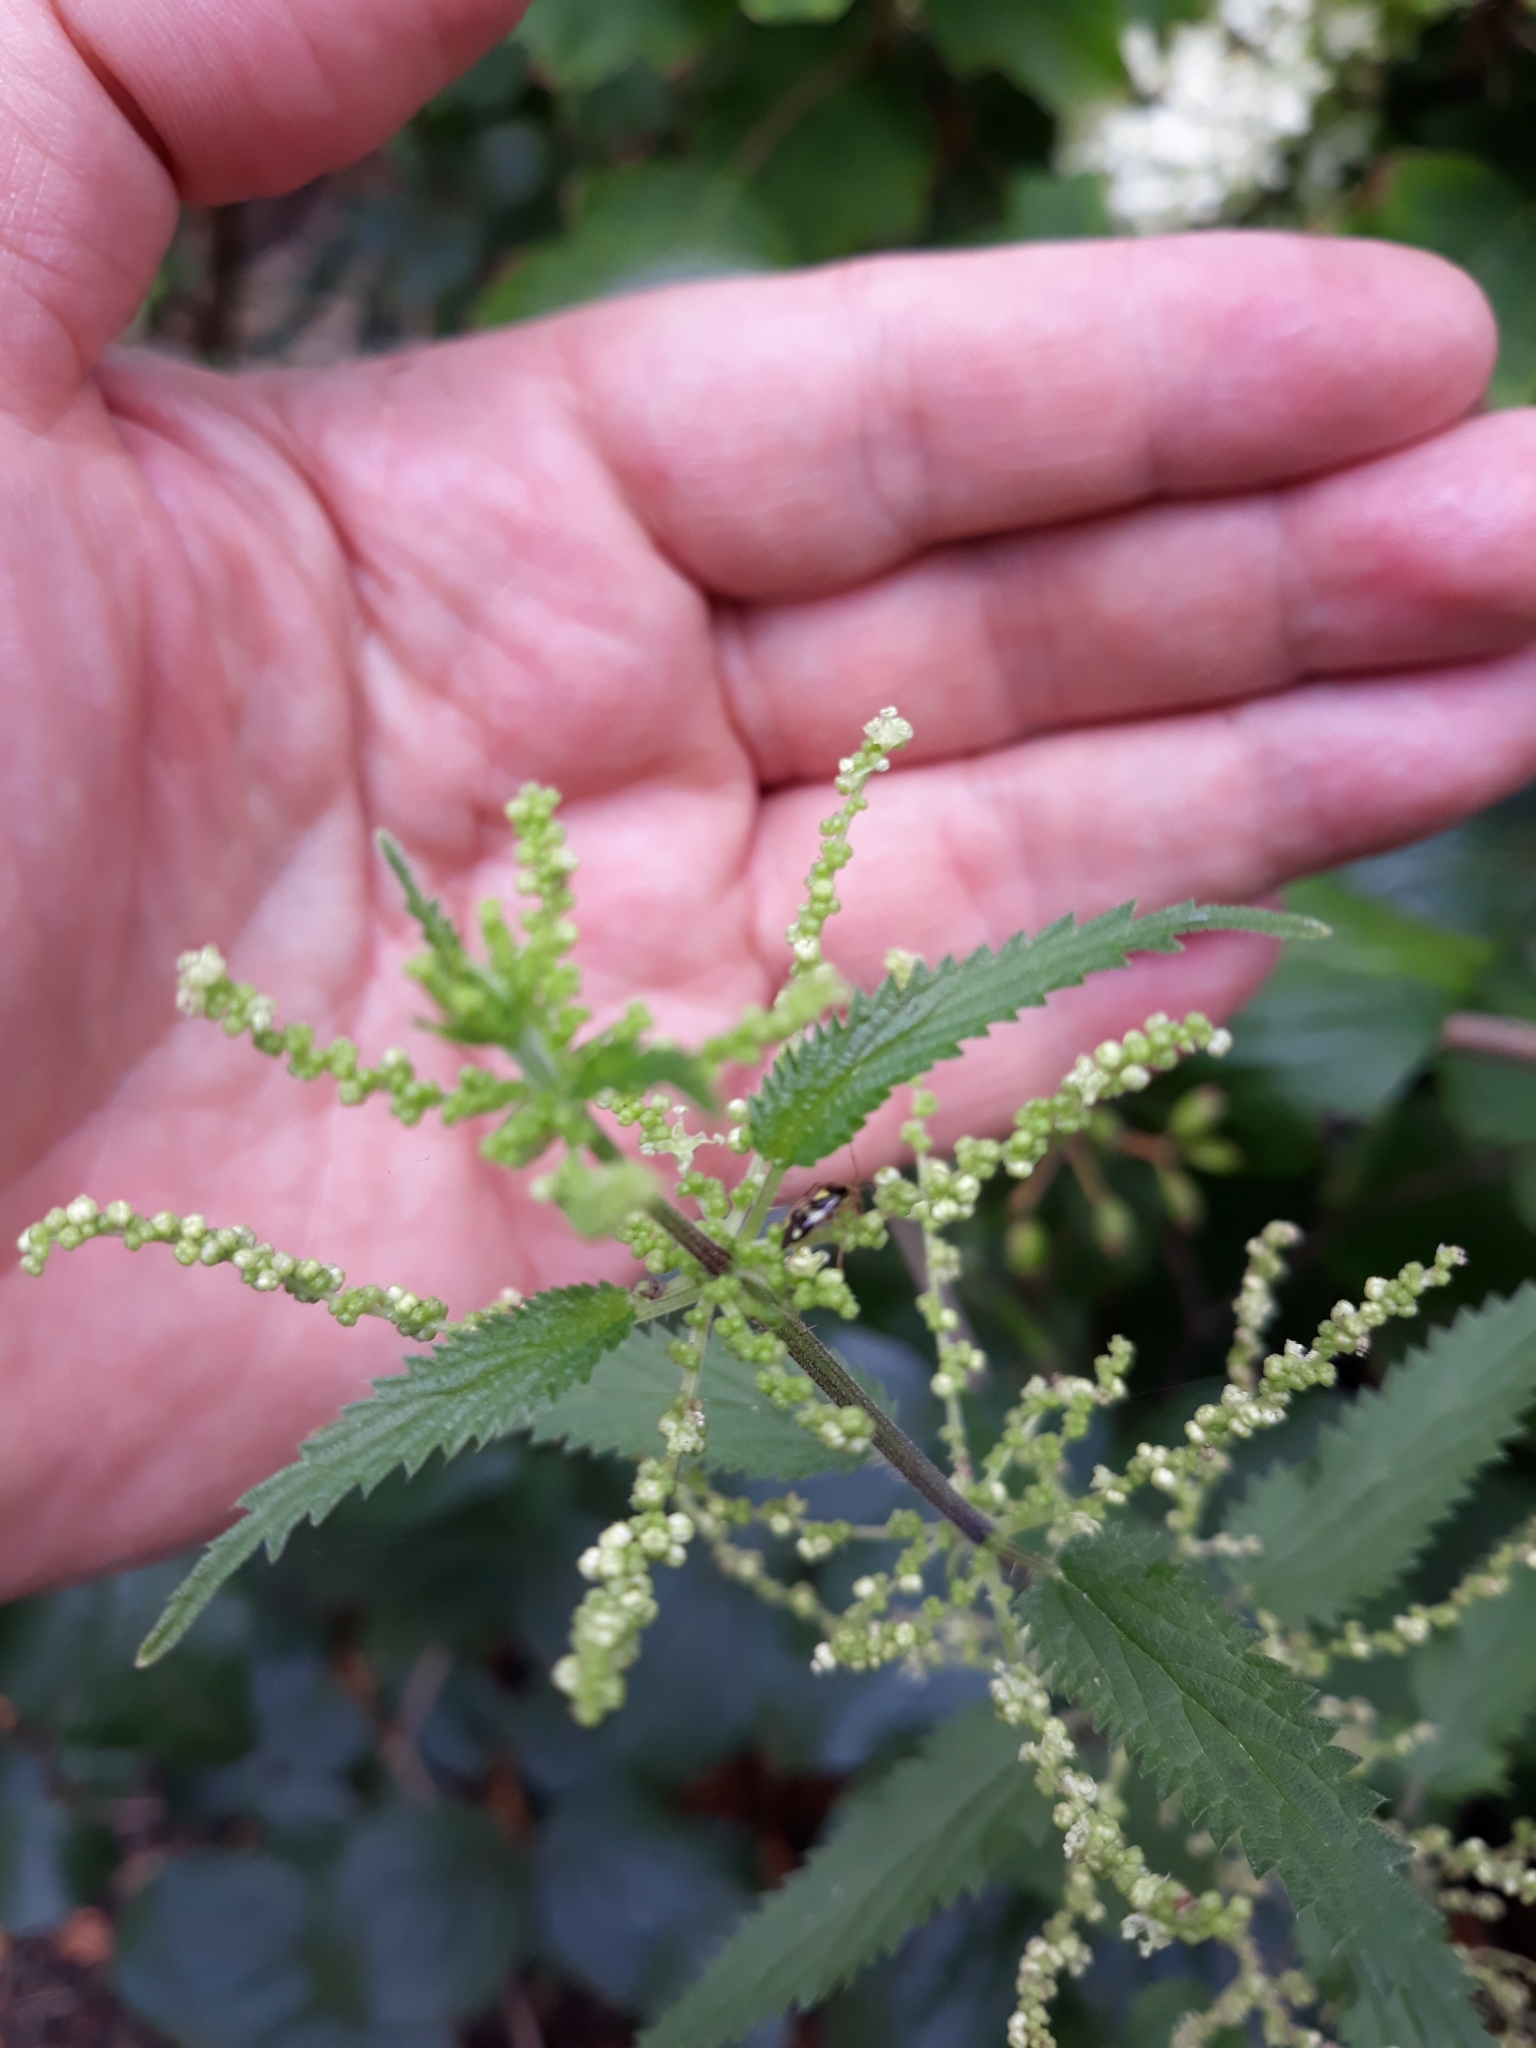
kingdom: Plantae
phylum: Tracheophyta
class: Magnoliopsida
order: Rosales
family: Urticaceae
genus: Urtica
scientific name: Urtica dioica
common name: Common nettle
